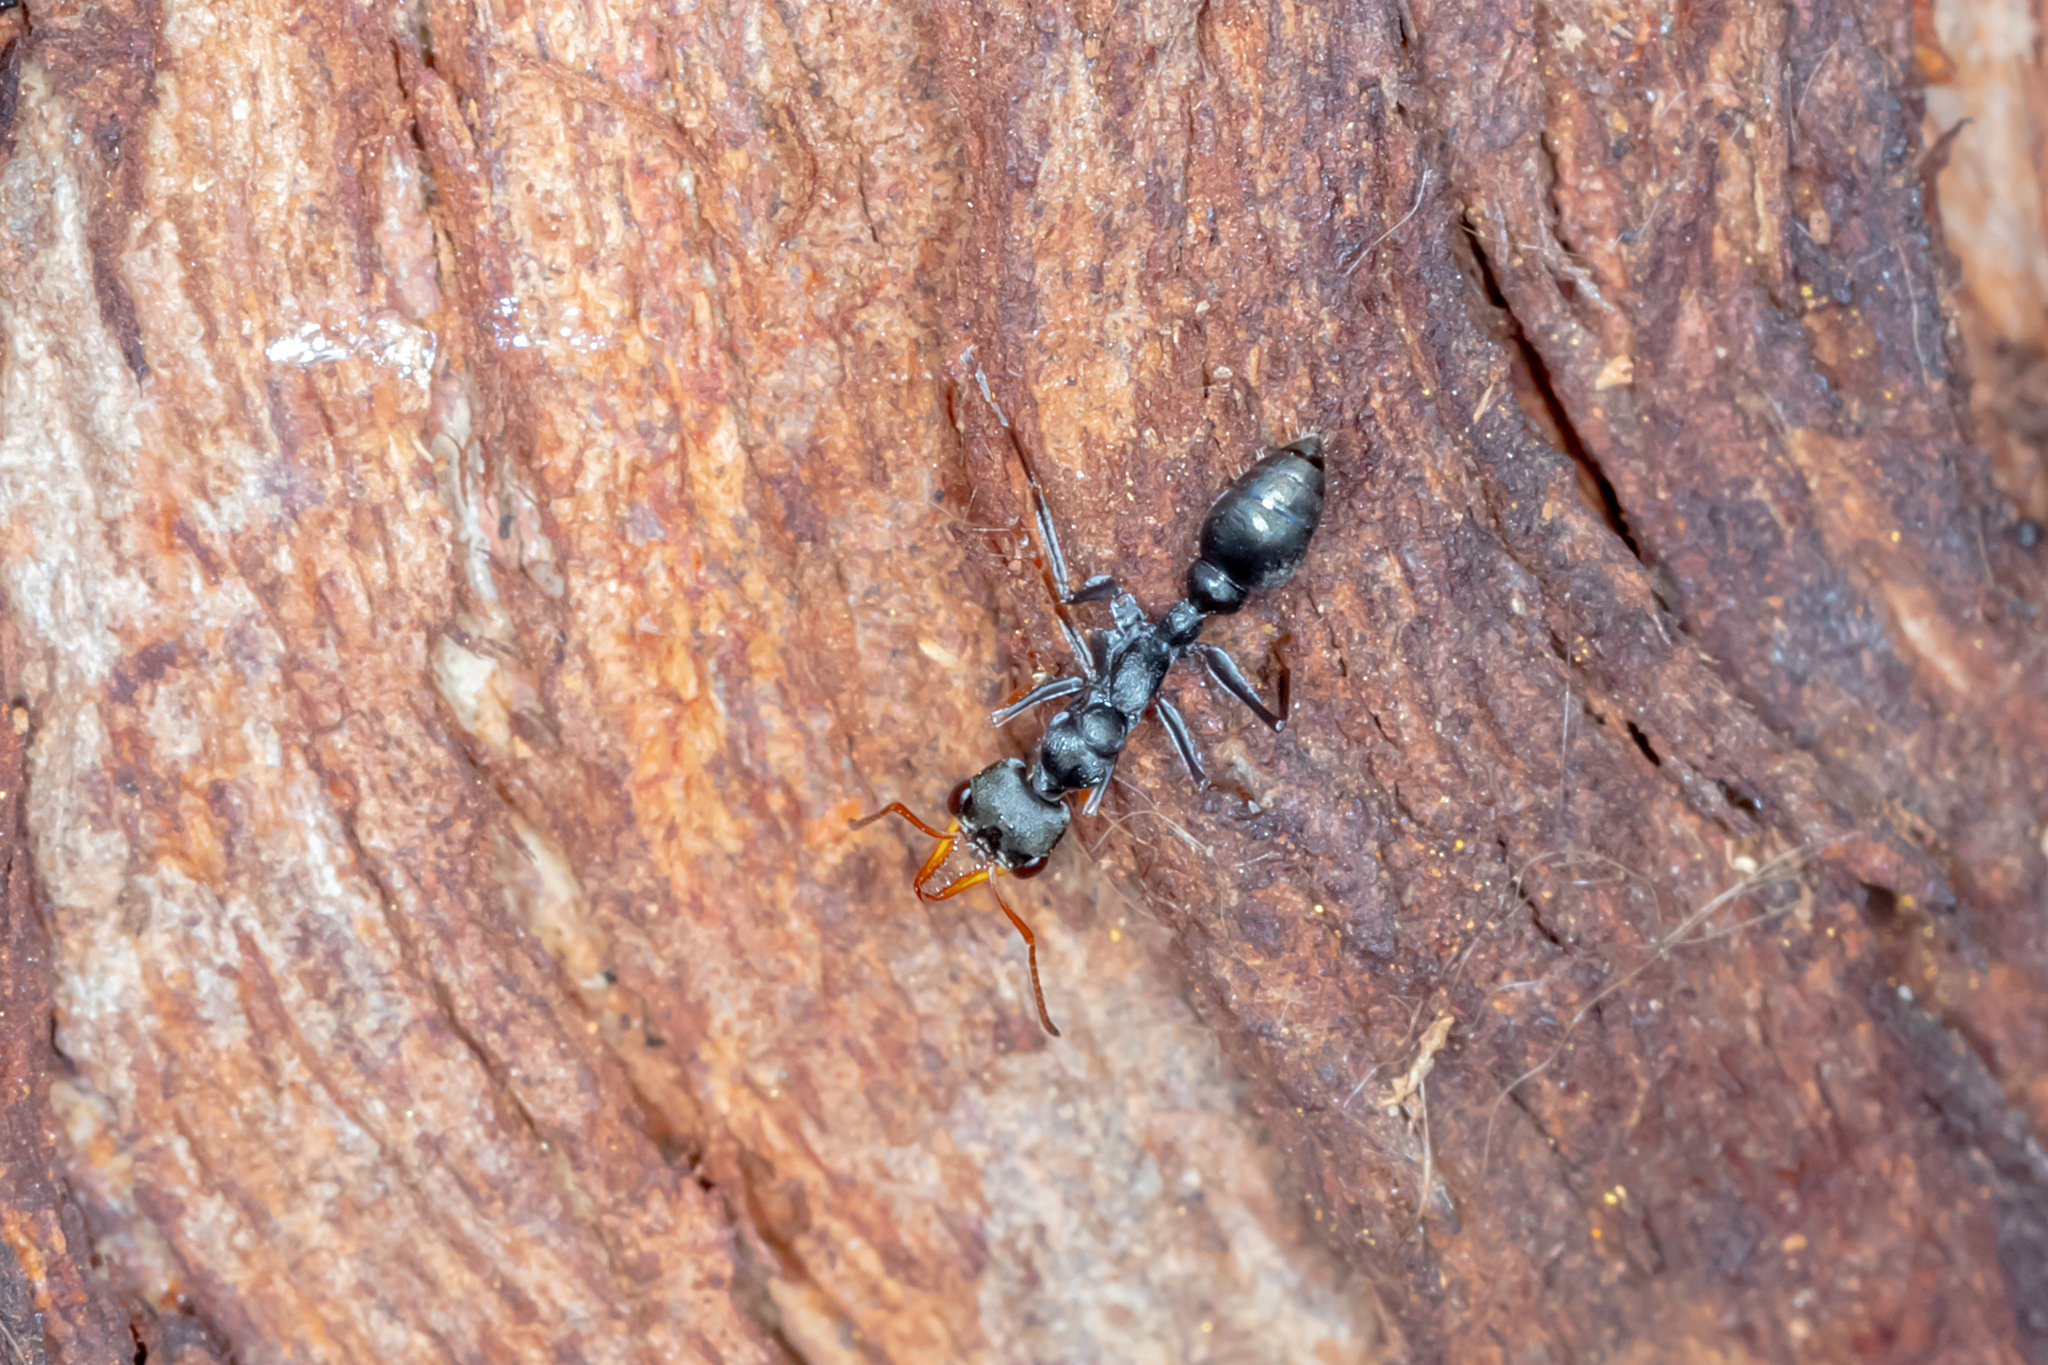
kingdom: Animalia
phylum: Arthropoda
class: Insecta
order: Hymenoptera
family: Formicidae
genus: Myrmecia
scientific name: Myrmecia pilosula
